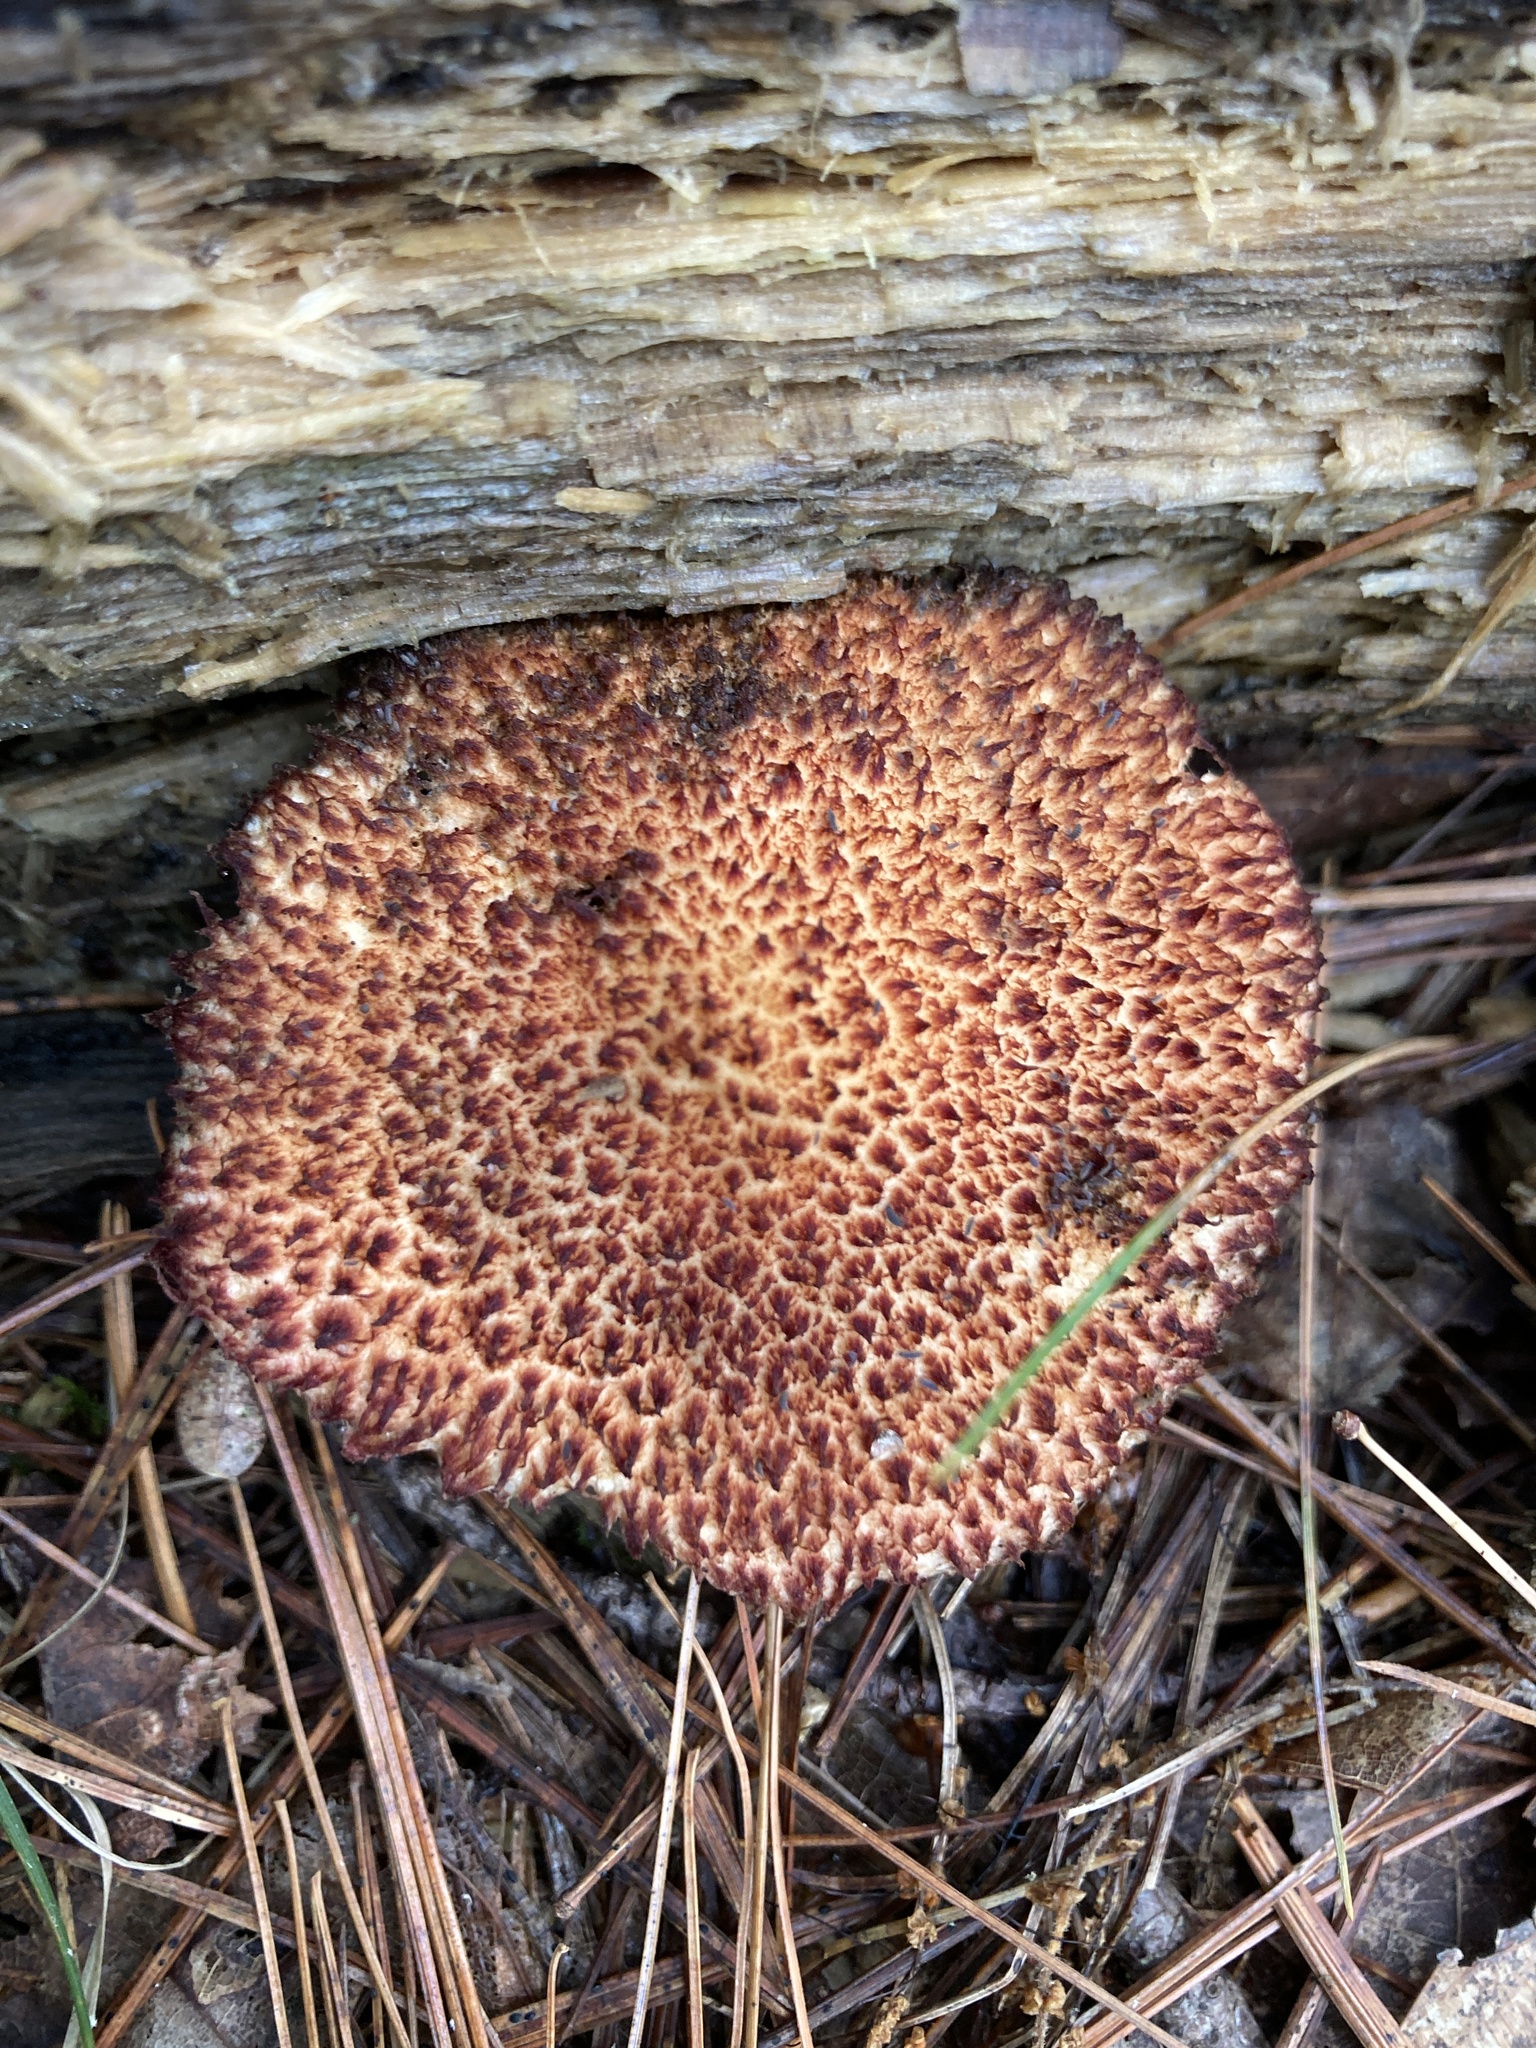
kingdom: Fungi
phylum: Basidiomycota
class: Agaricomycetes
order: Boletales
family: Suillaceae
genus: Suillus
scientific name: Suillus spraguei
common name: Painted suillus
